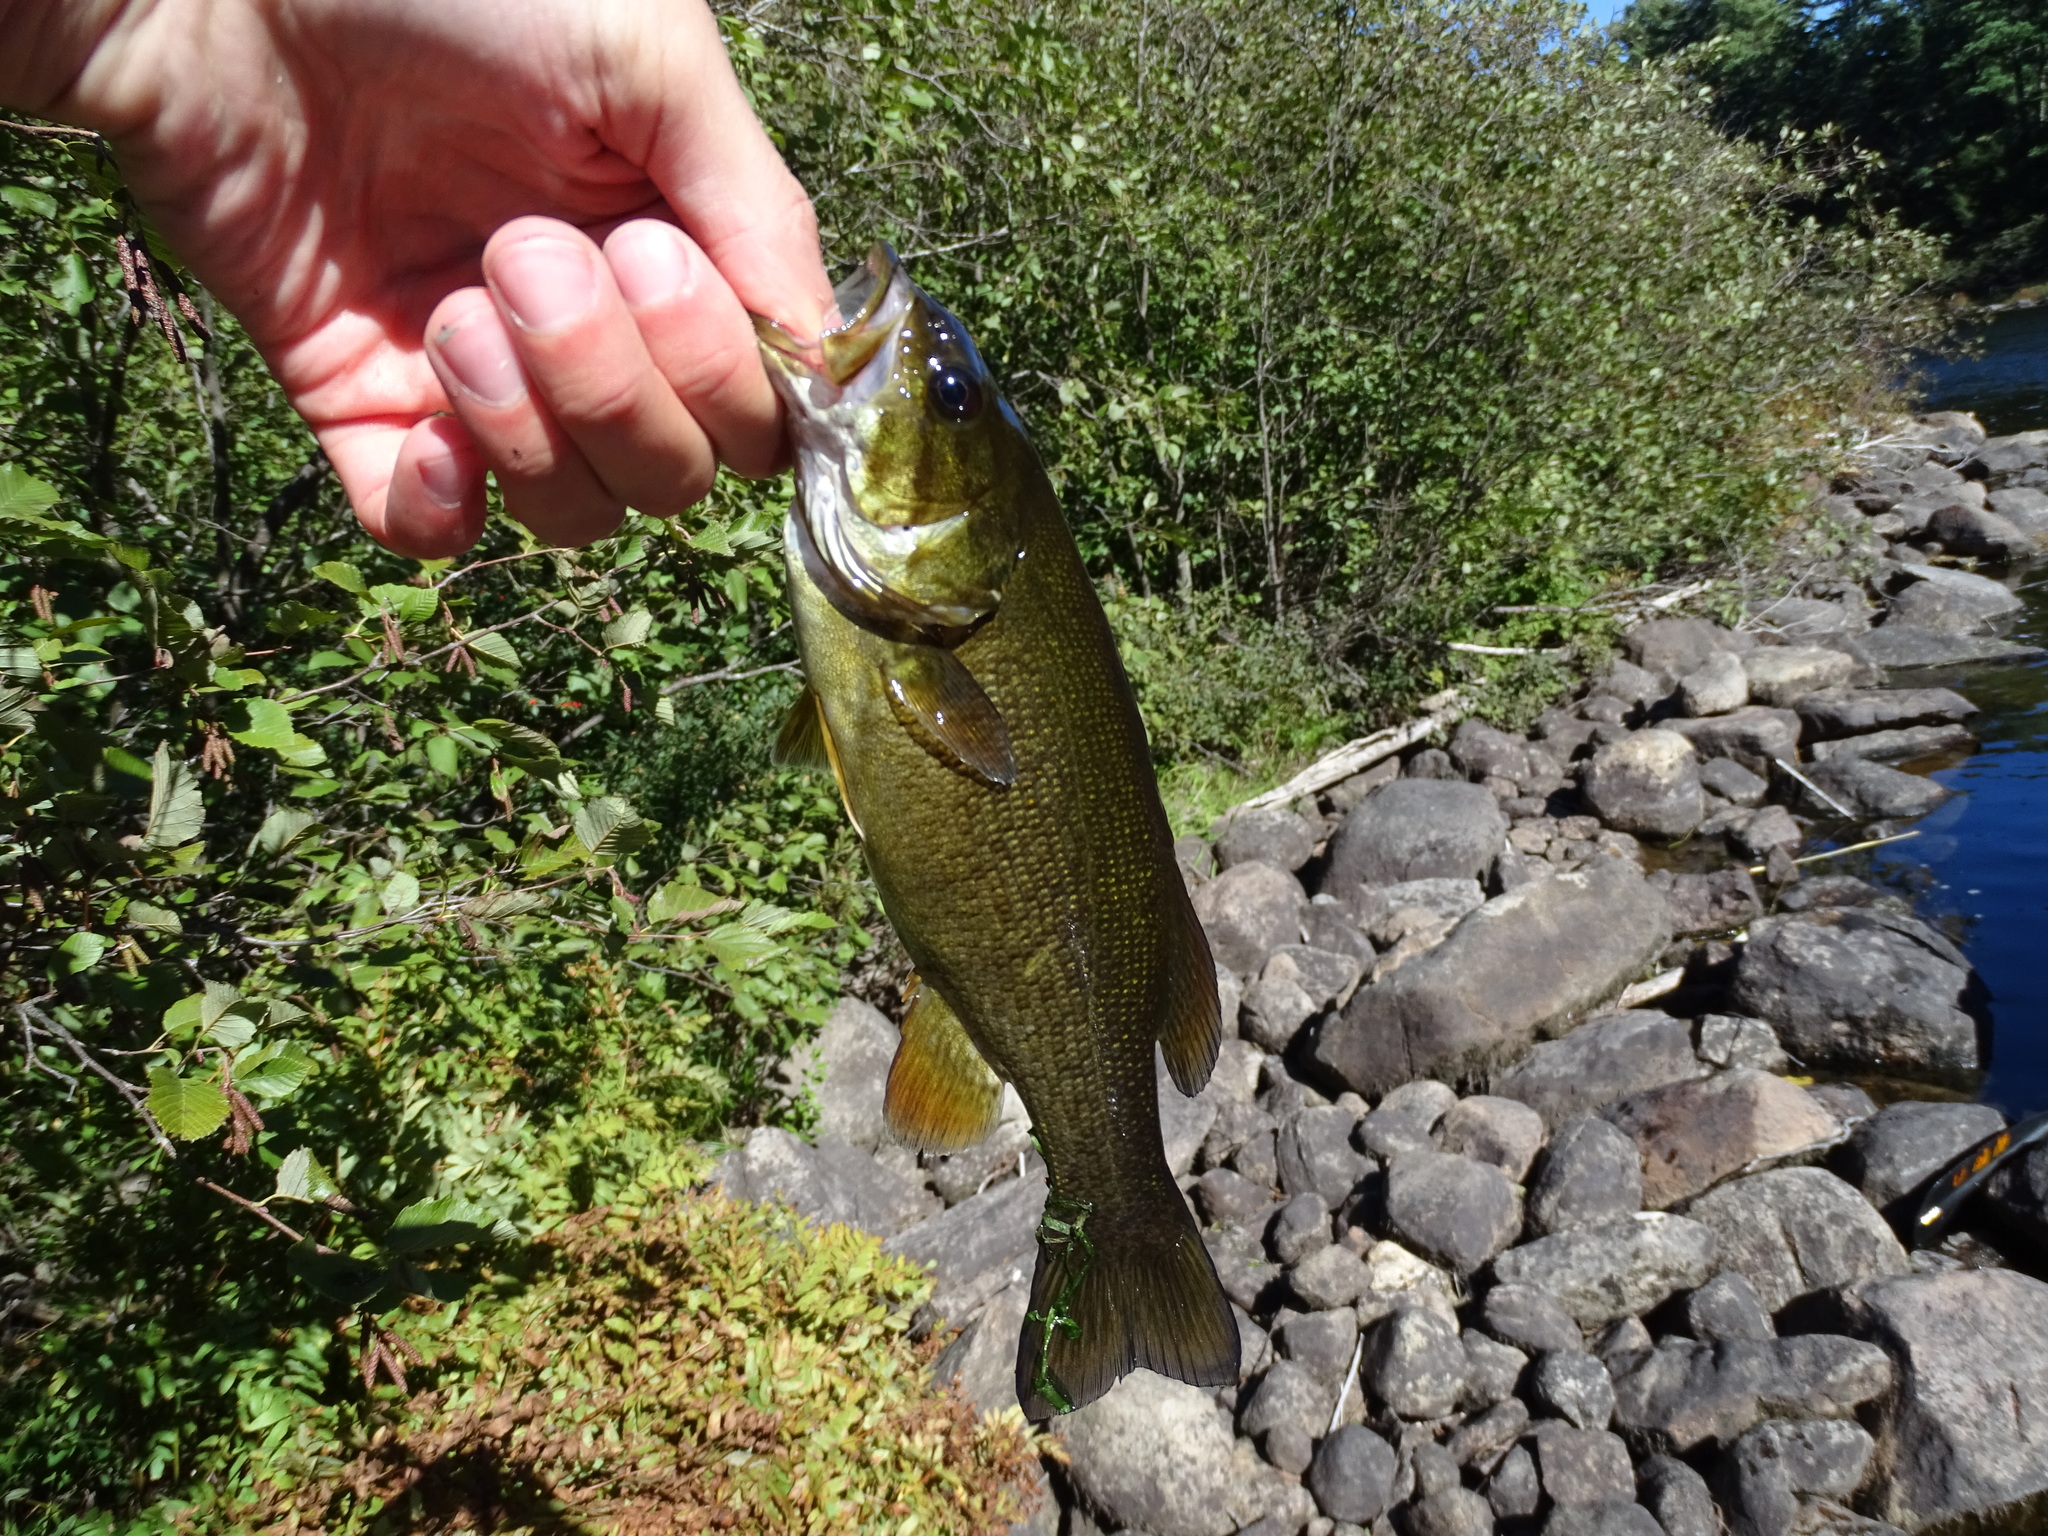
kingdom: Animalia
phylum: Chordata
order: Perciformes
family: Centrarchidae
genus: Micropterus
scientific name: Micropterus dolomieu
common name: Smallmouth bass
